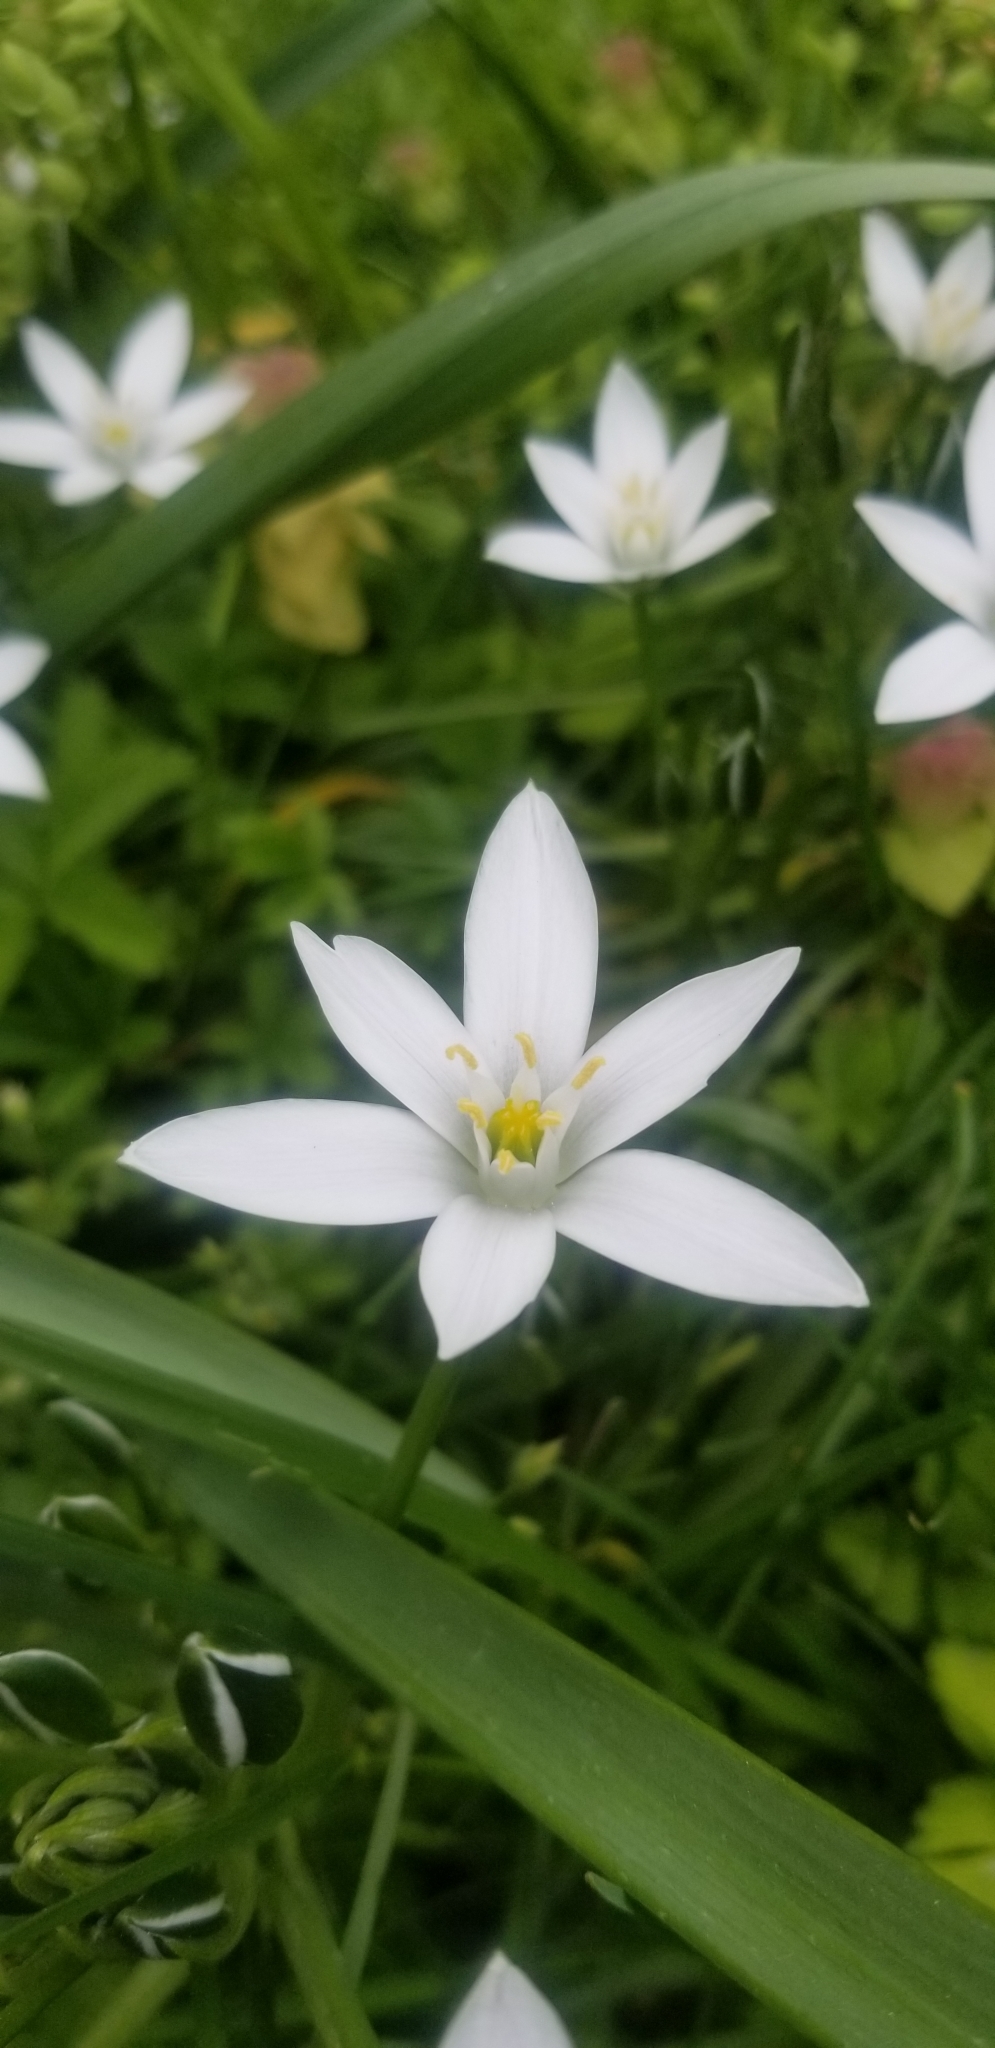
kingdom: Plantae
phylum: Tracheophyta
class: Liliopsida
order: Asparagales
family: Asparagaceae
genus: Ornithogalum
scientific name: Ornithogalum umbellatum
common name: Garden star-of-bethlehem
